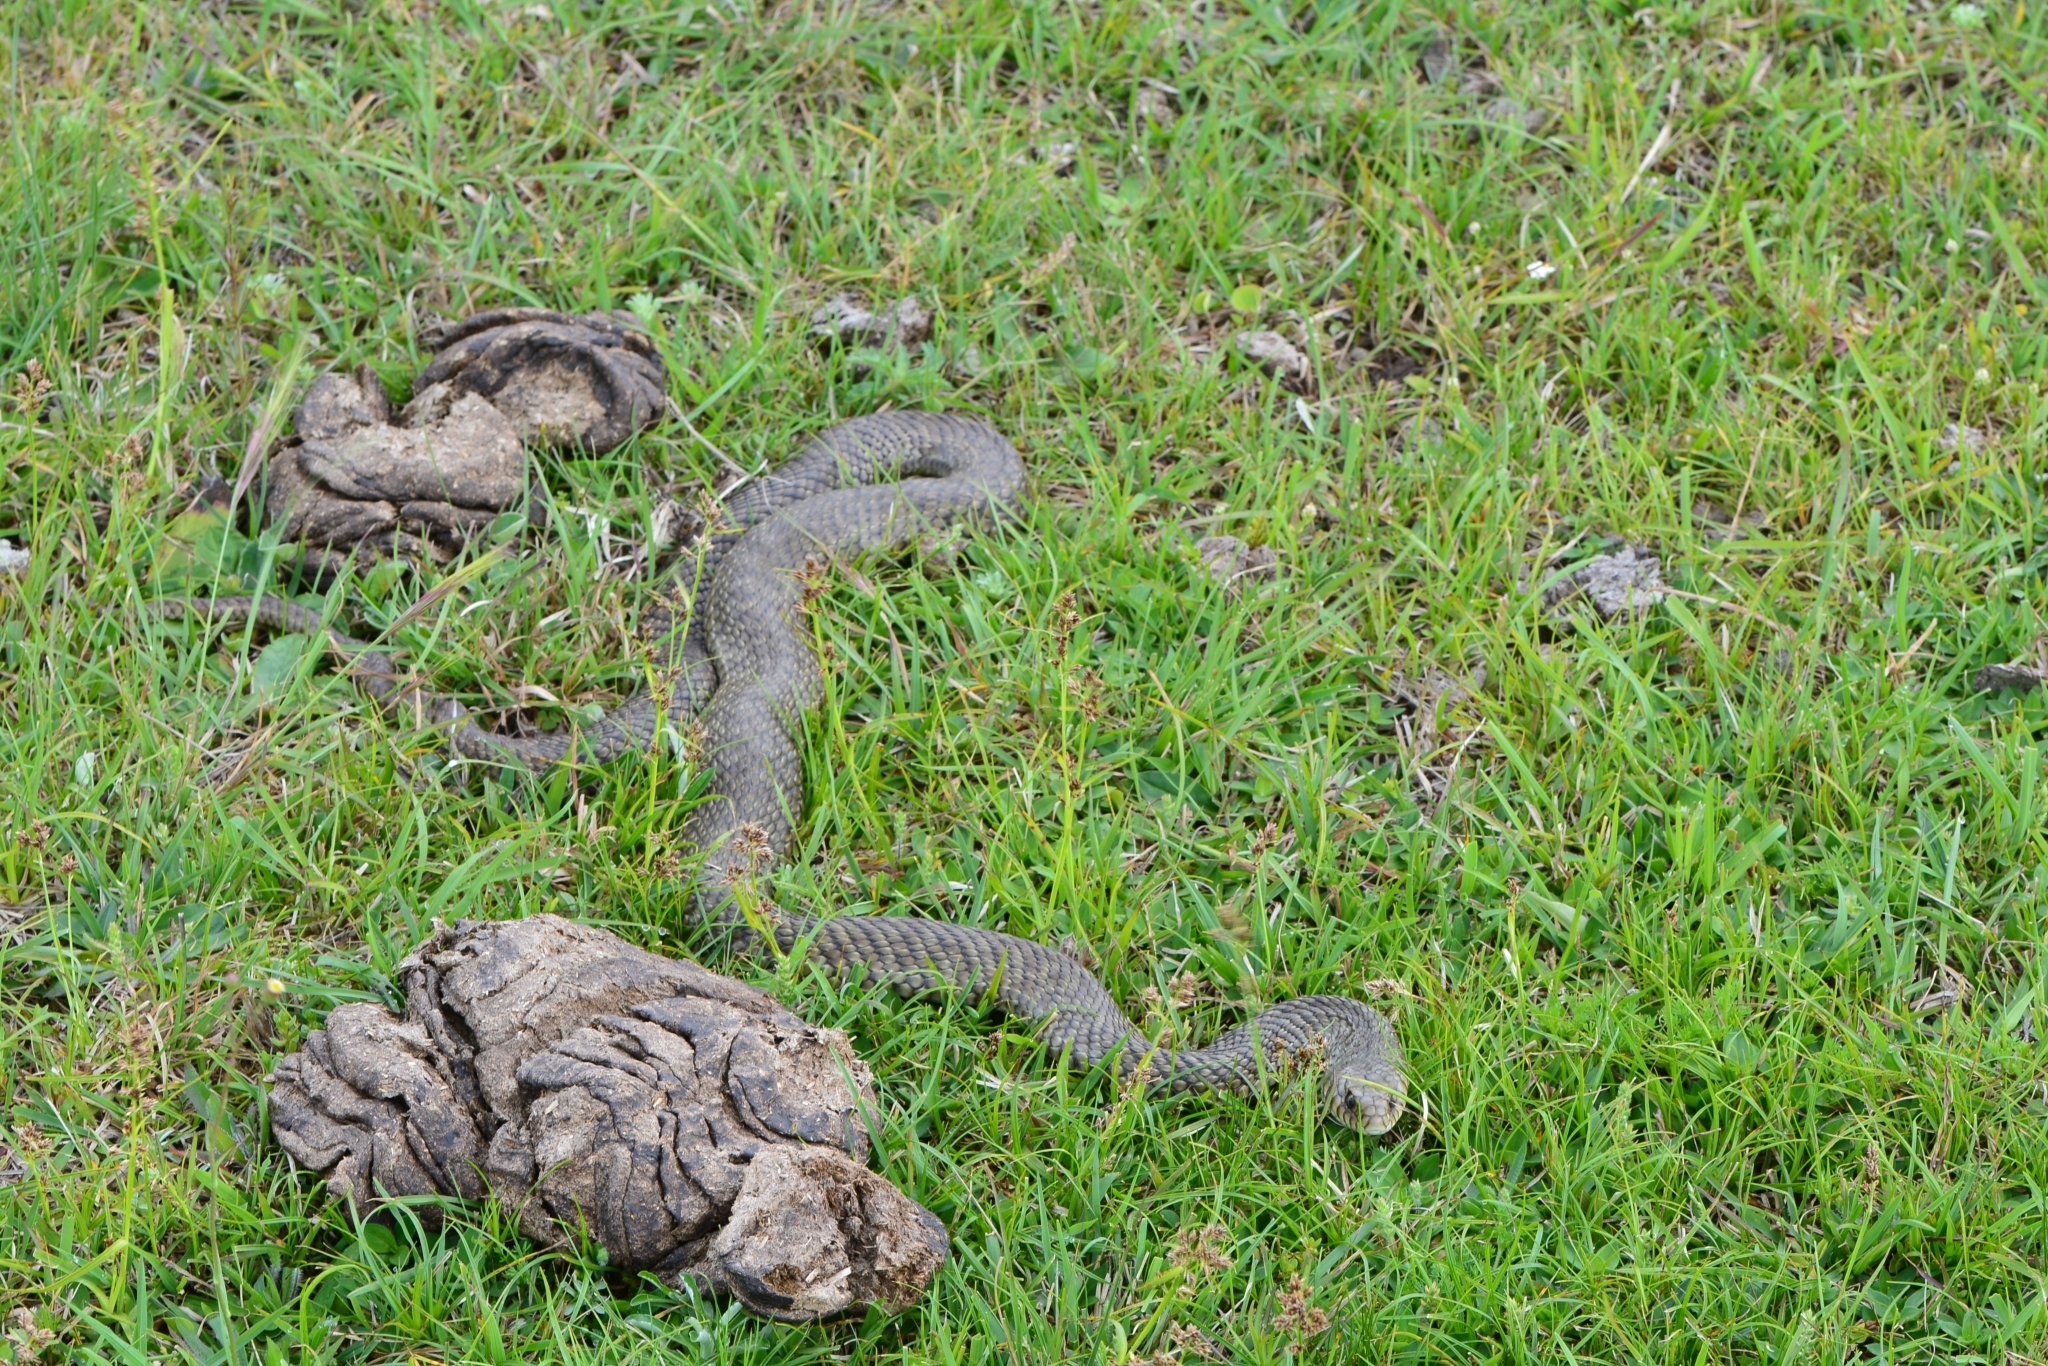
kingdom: Animalia
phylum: Chordata
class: Squamata
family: Colubridae
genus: Philodryas
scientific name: Philodryas patagoniensis
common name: Patagonia green racer
